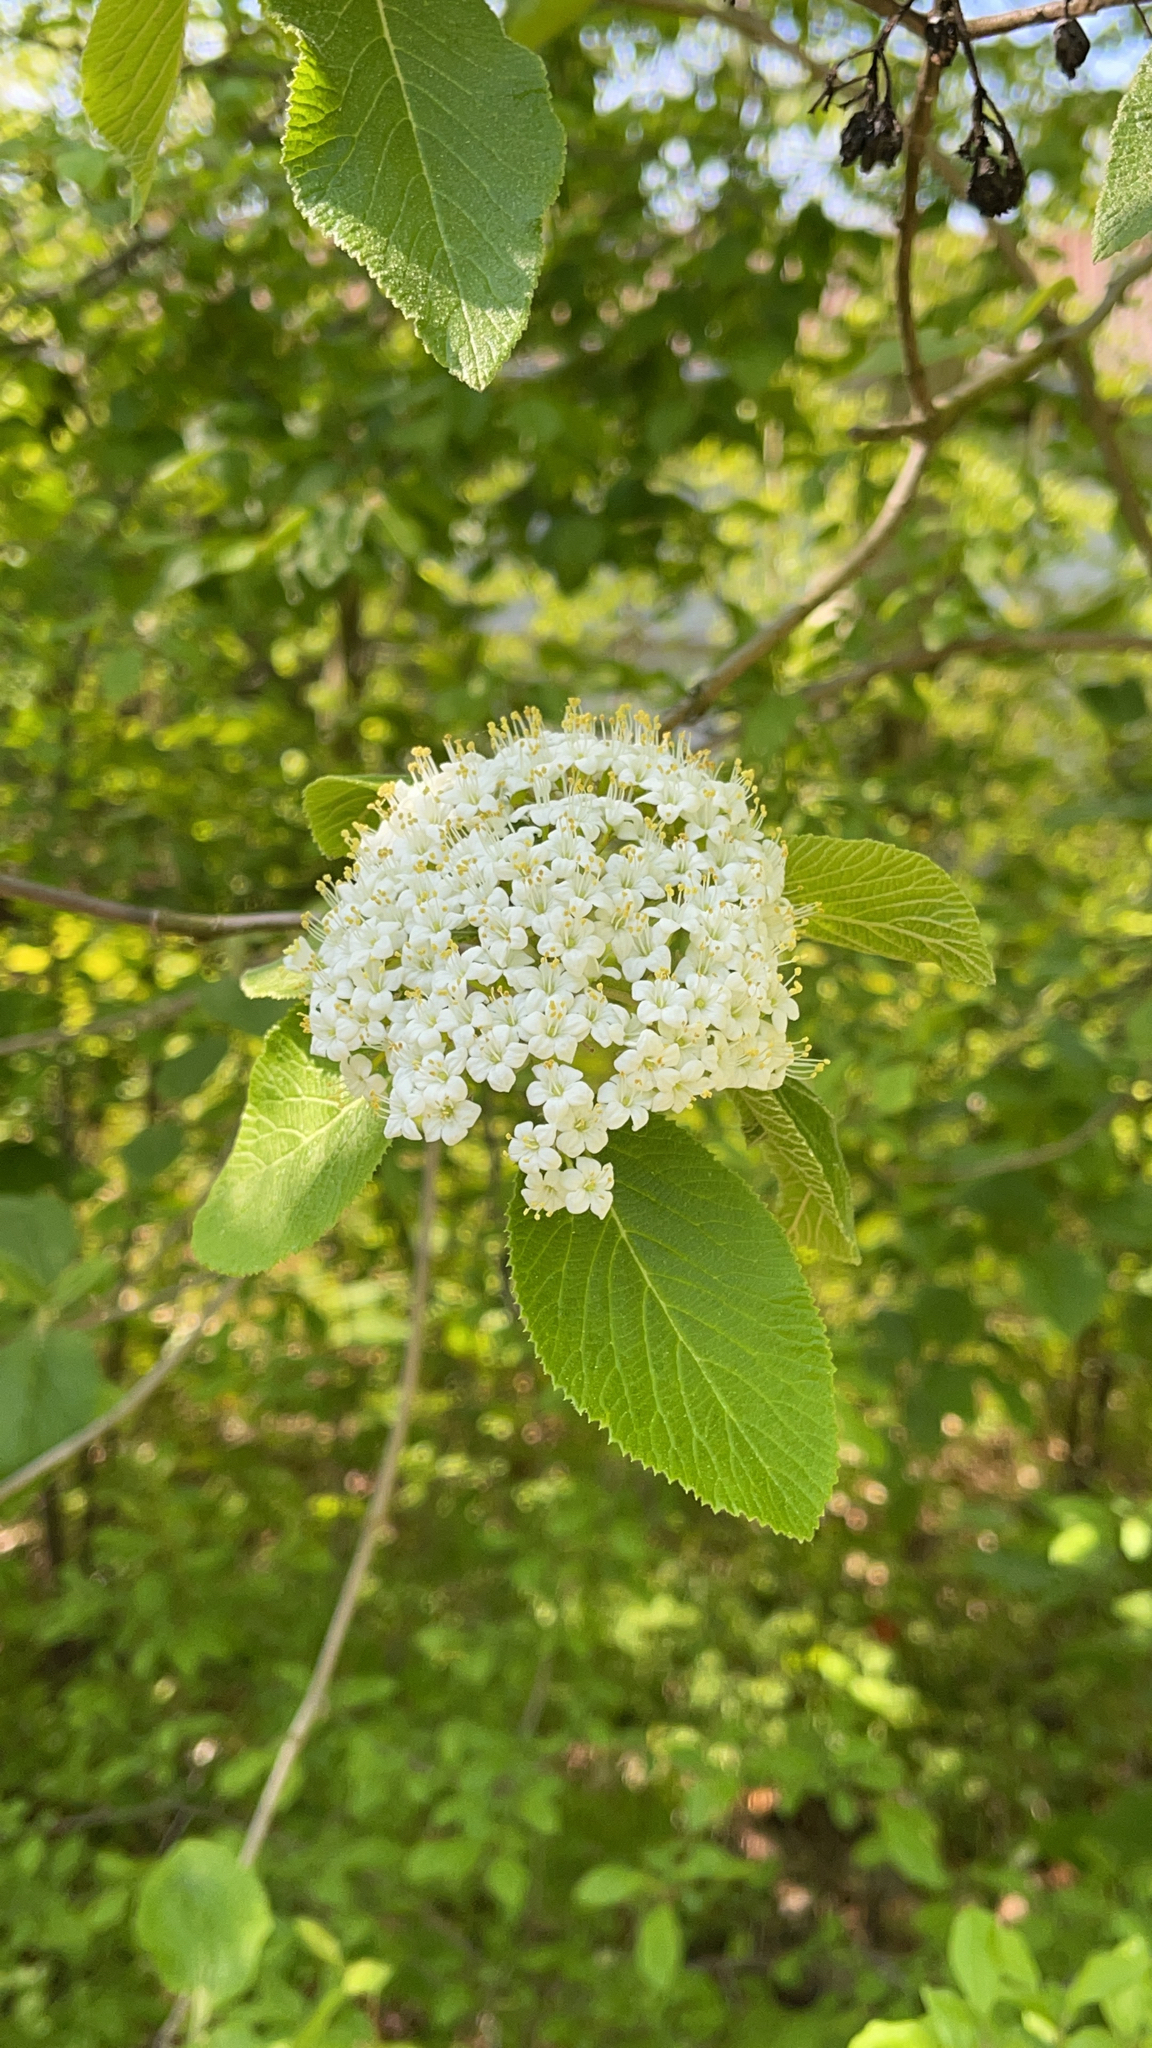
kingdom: Plantae
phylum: Tracheophyta
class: Magnoliopsida
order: Dipsacales
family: Viburnaceae
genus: Viburnum
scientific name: Viburnum lantana
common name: Wayfaring tree
